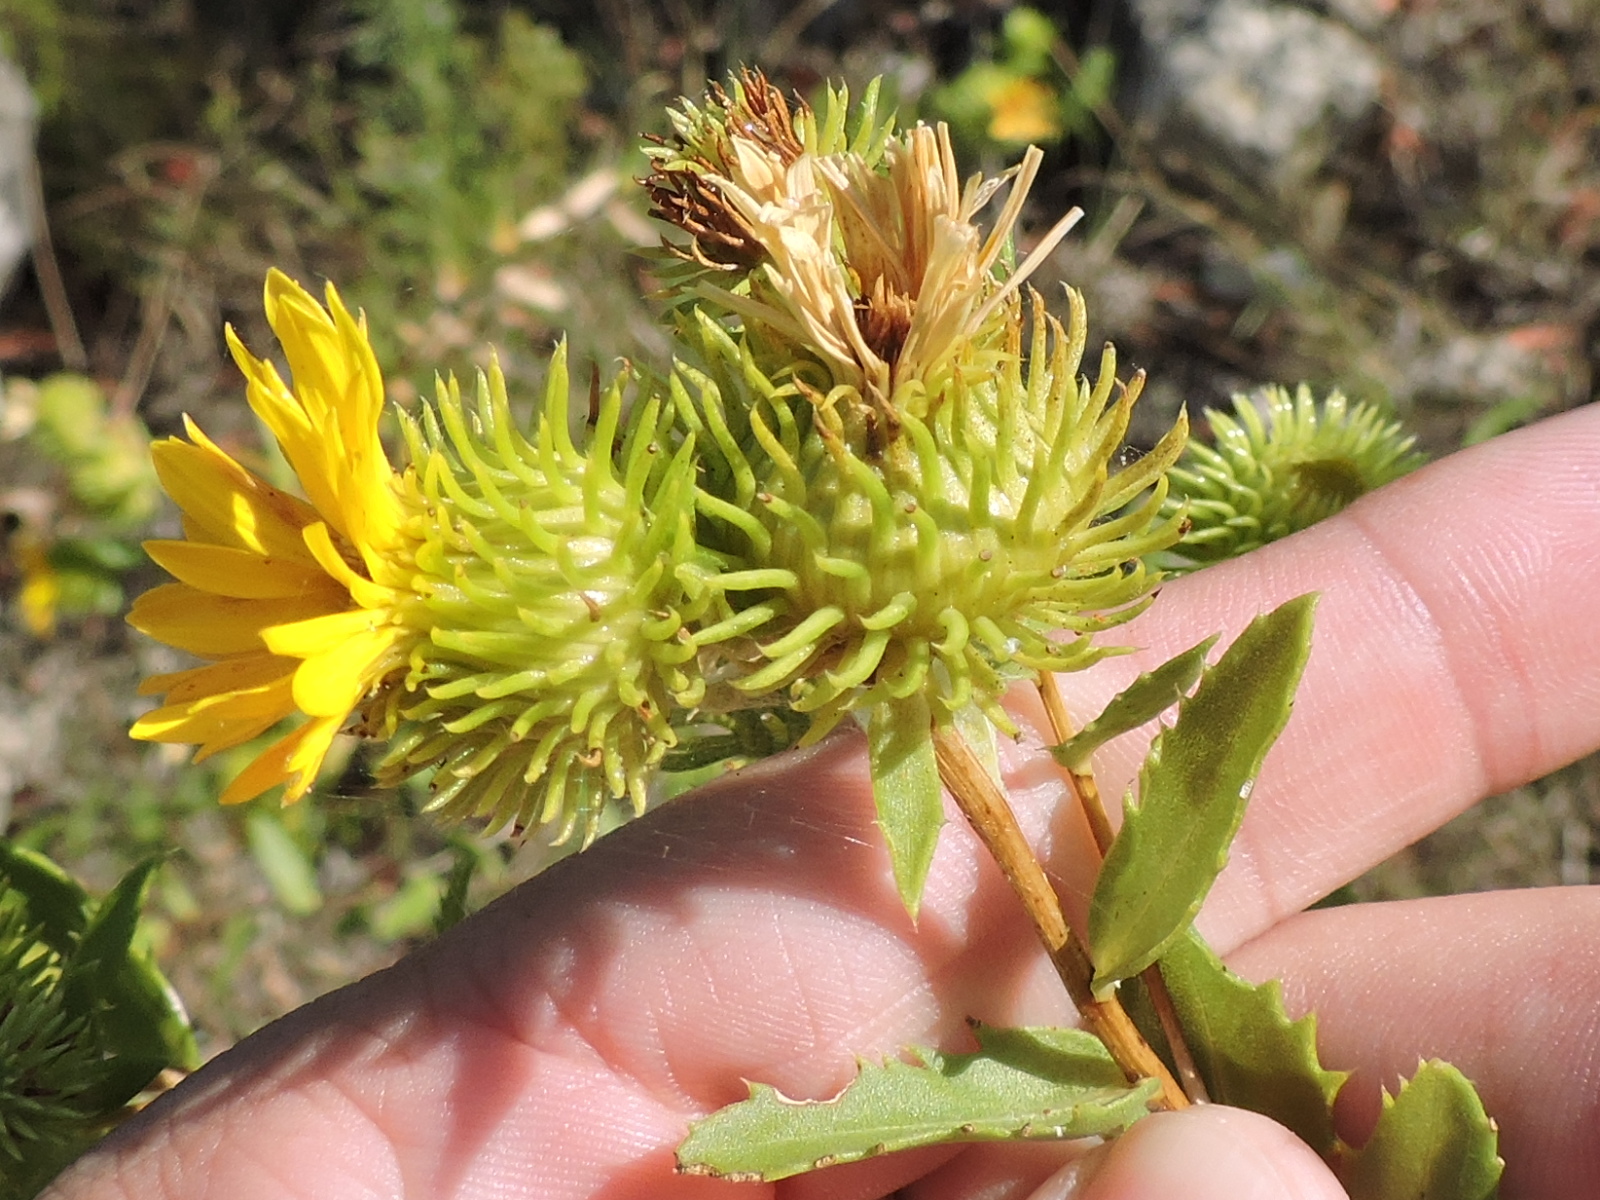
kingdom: Plantae
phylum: Tracheophyta
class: Magnoliopsida
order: Asterales
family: Asteraceae
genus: Grindelia
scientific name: Grindelia lanceolata
